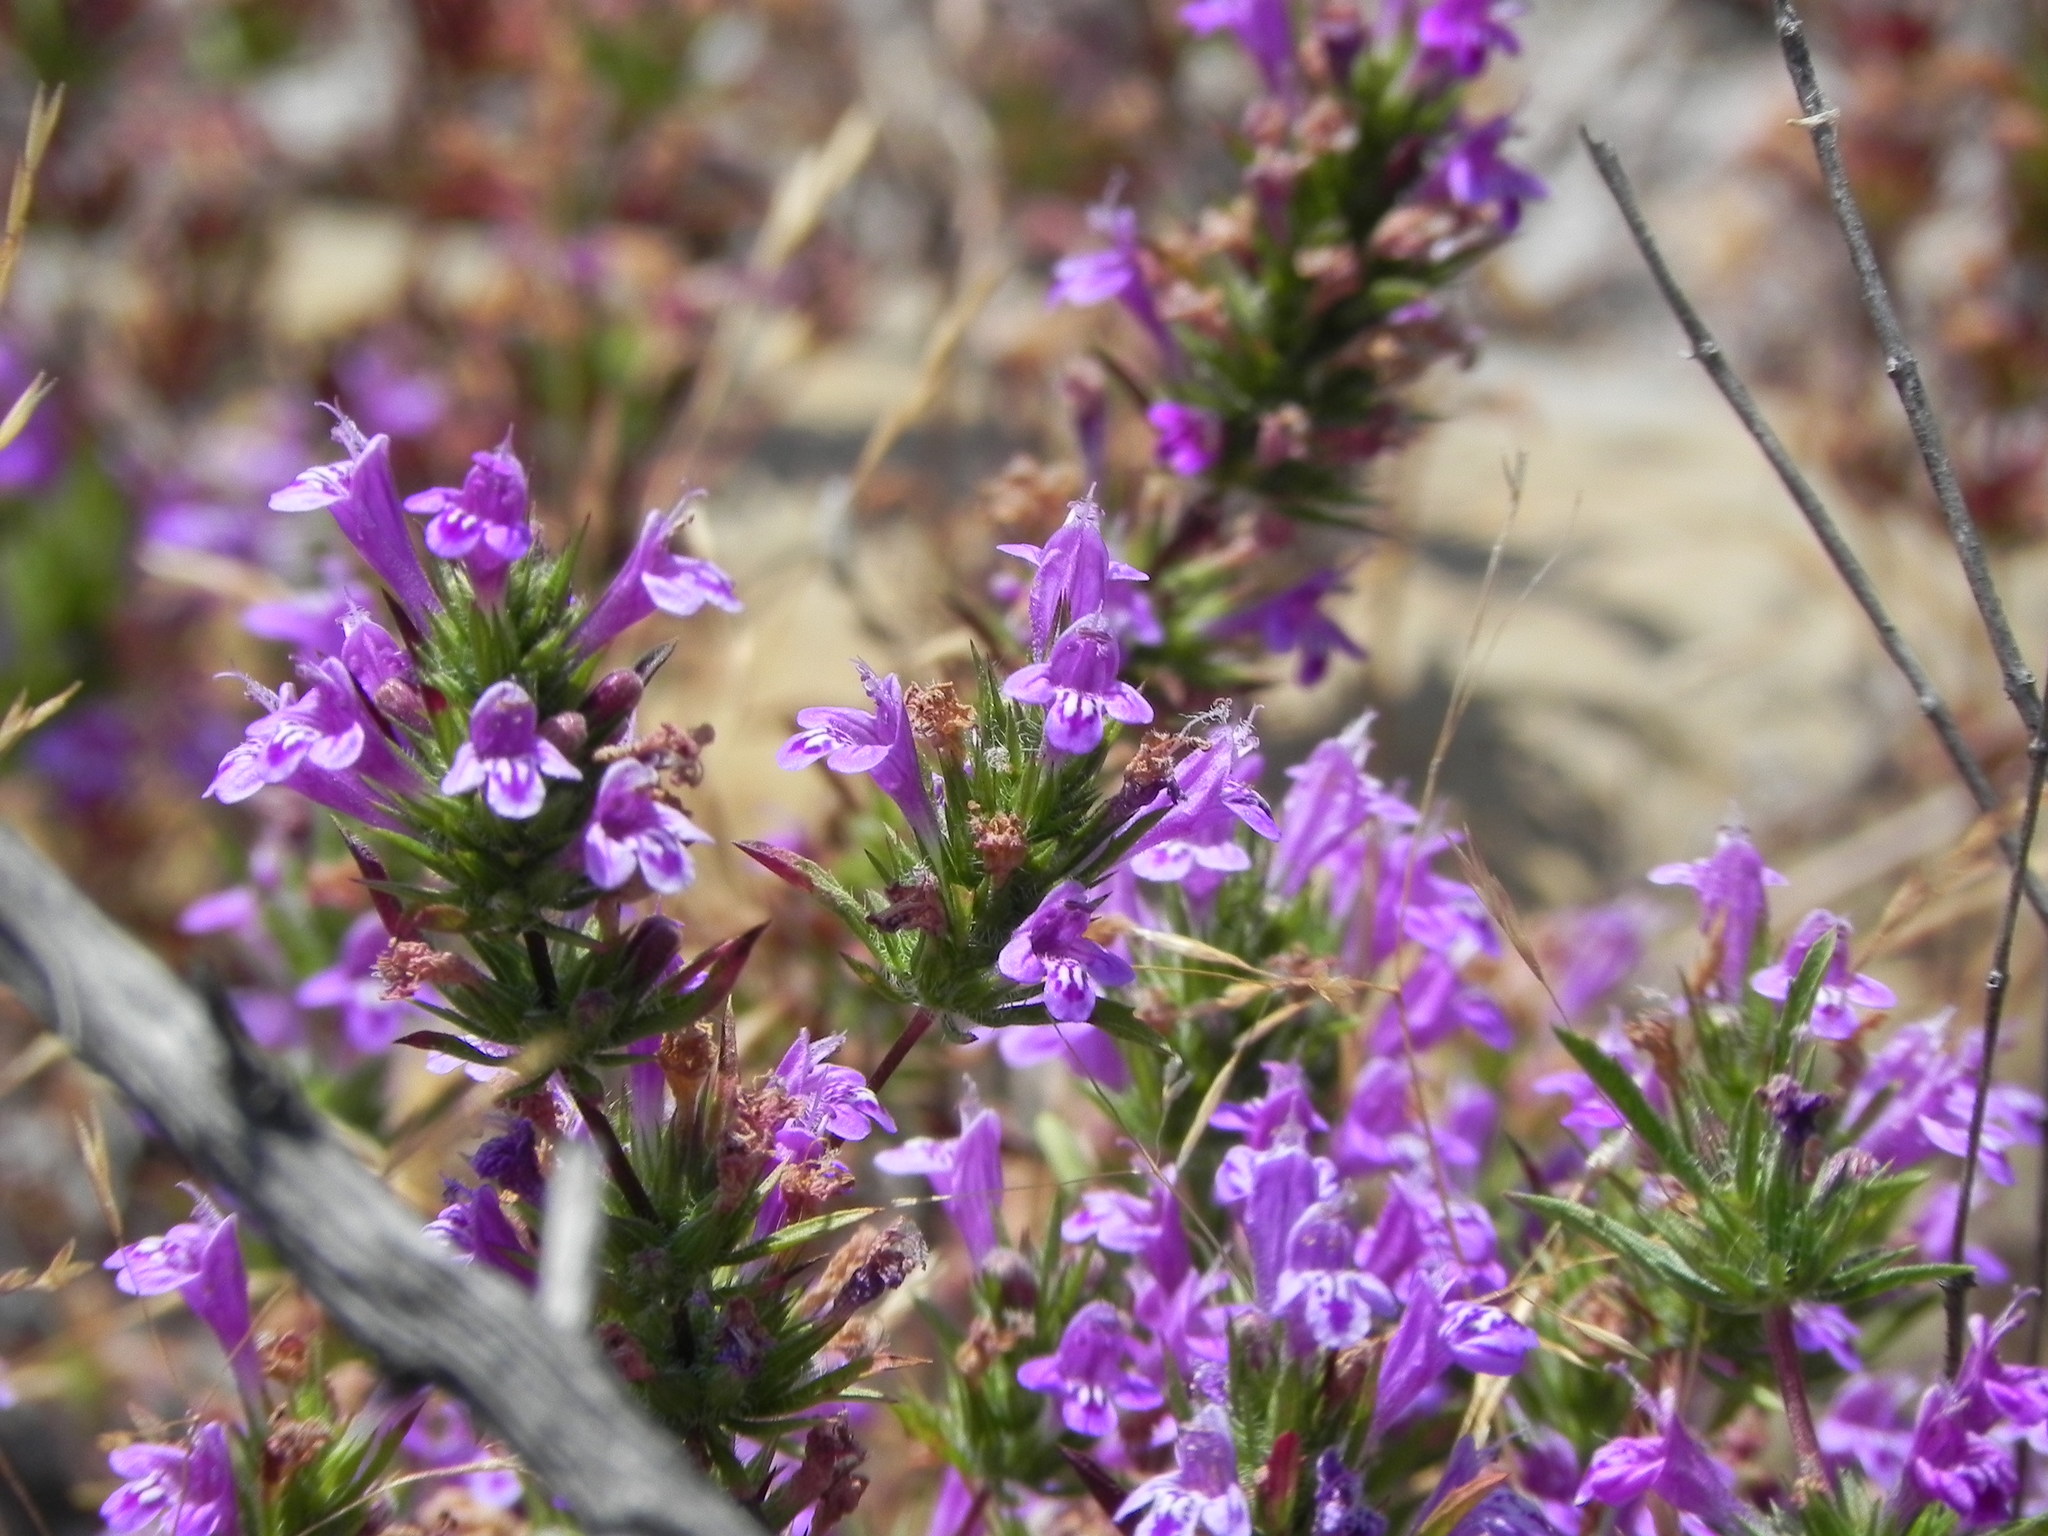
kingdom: Plantae
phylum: Tracheophyta
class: Magnoliopsida
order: Lamiales
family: Lamiaceae
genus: Pogogyne
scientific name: Pogogyne nudiuscula
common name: Otay mesa-mint
